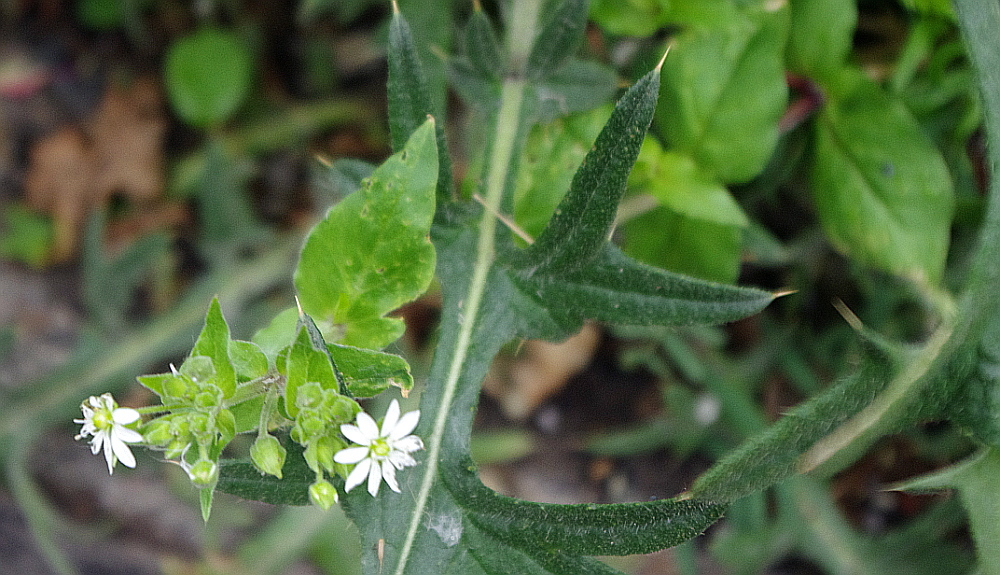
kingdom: Plantae
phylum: Tracheophyta
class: Magnoliopsida
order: Caryophyllales
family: Caryophyllaceae
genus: Stellaria
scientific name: Stellaria aquatica
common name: Water chickweed
